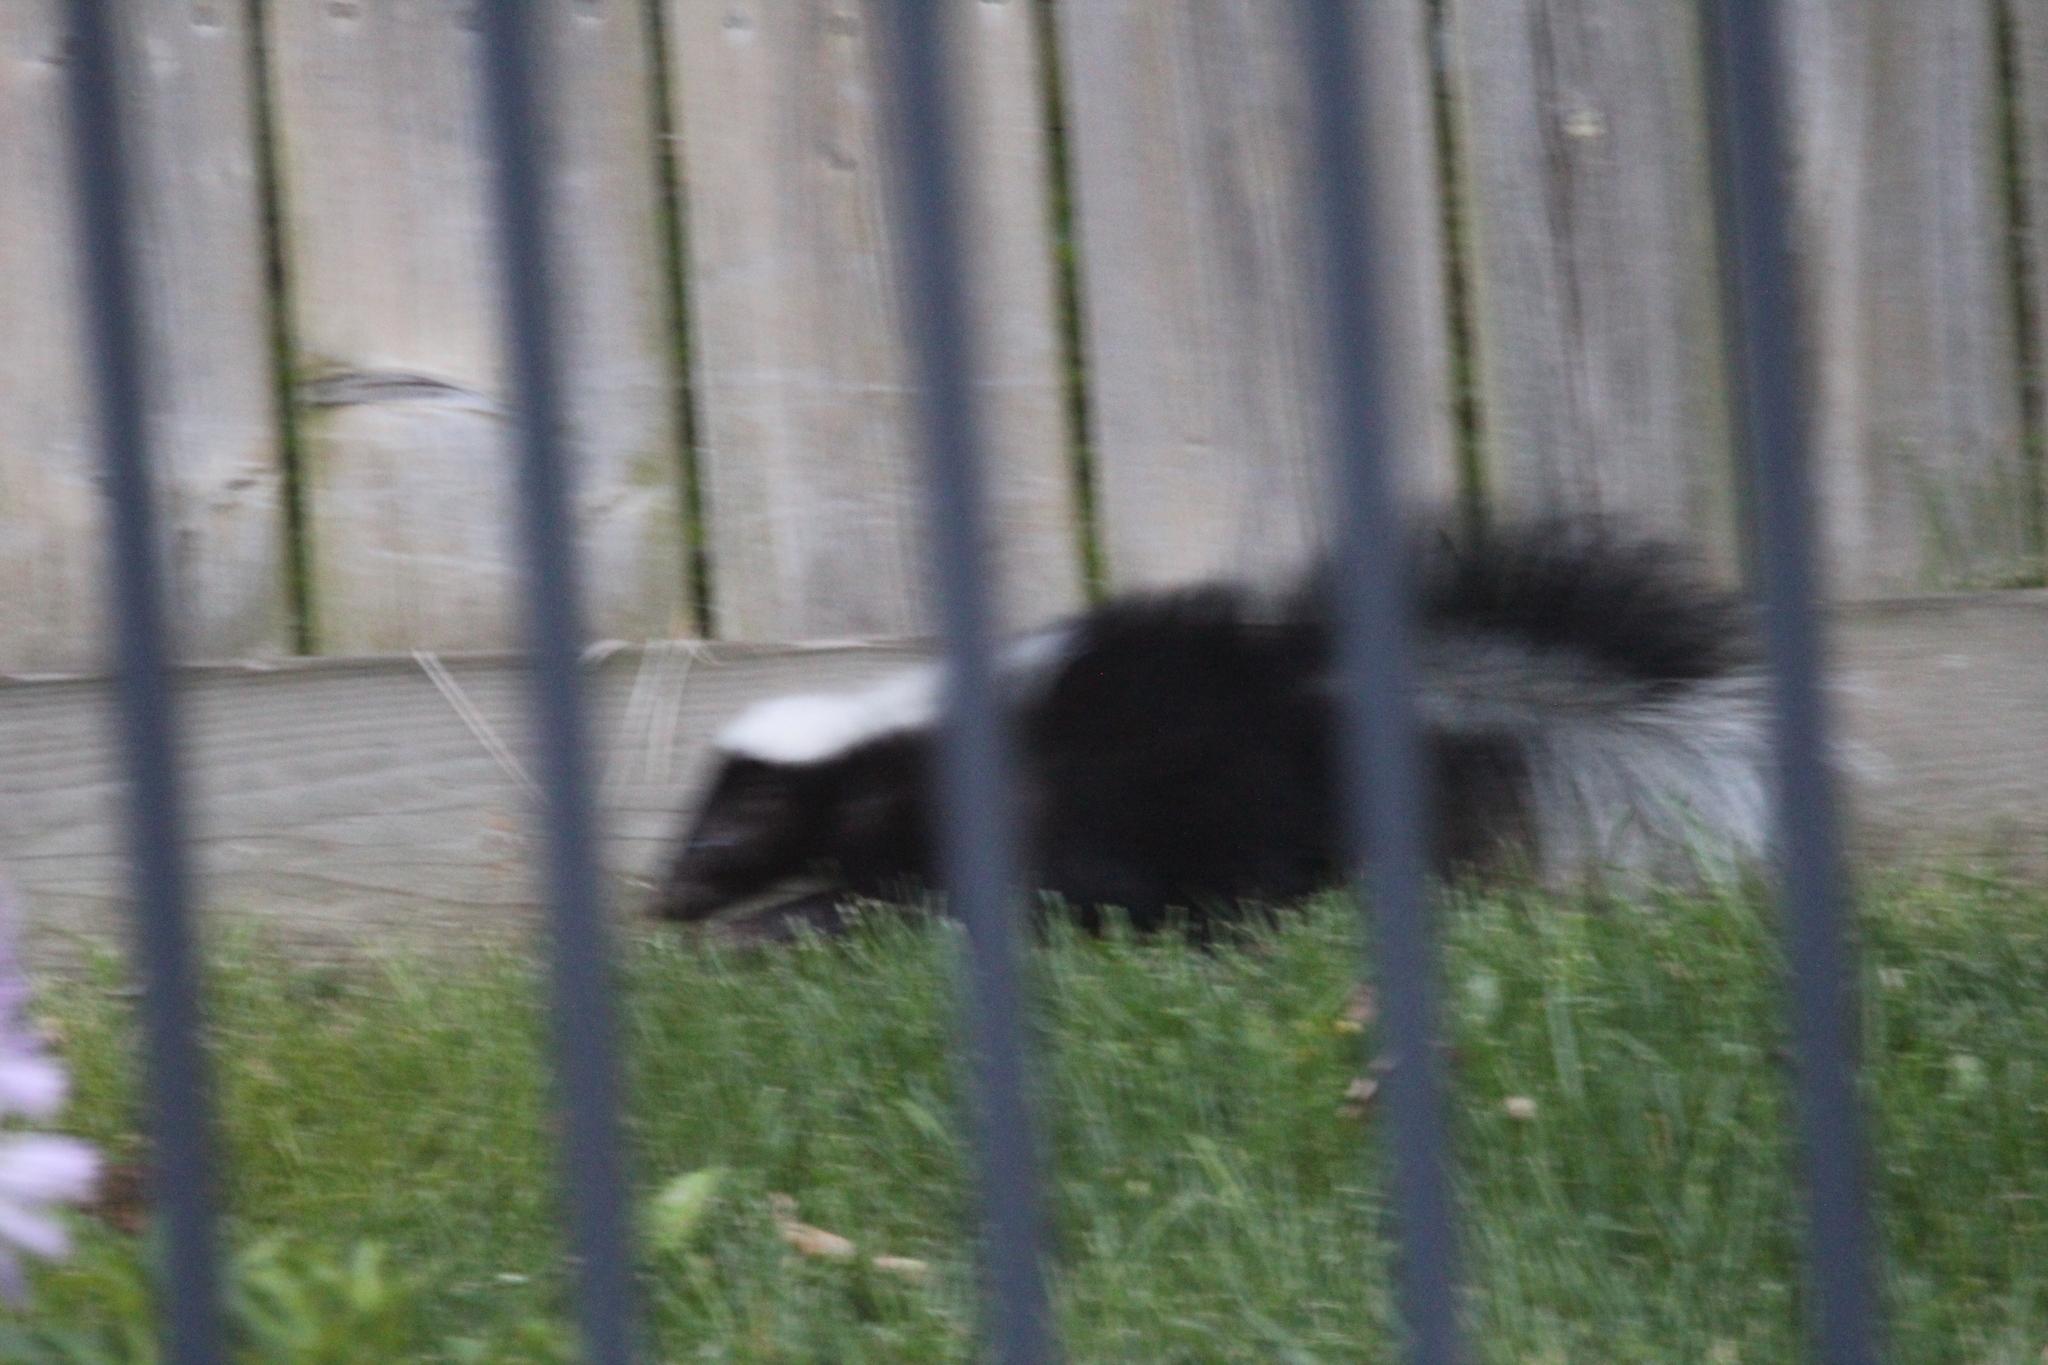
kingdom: Animalia
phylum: Chordata
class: Mammalia
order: Carnivora
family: Mephitidae
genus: Mephitis
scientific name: Mephitis mephitis
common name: Striped skunk
